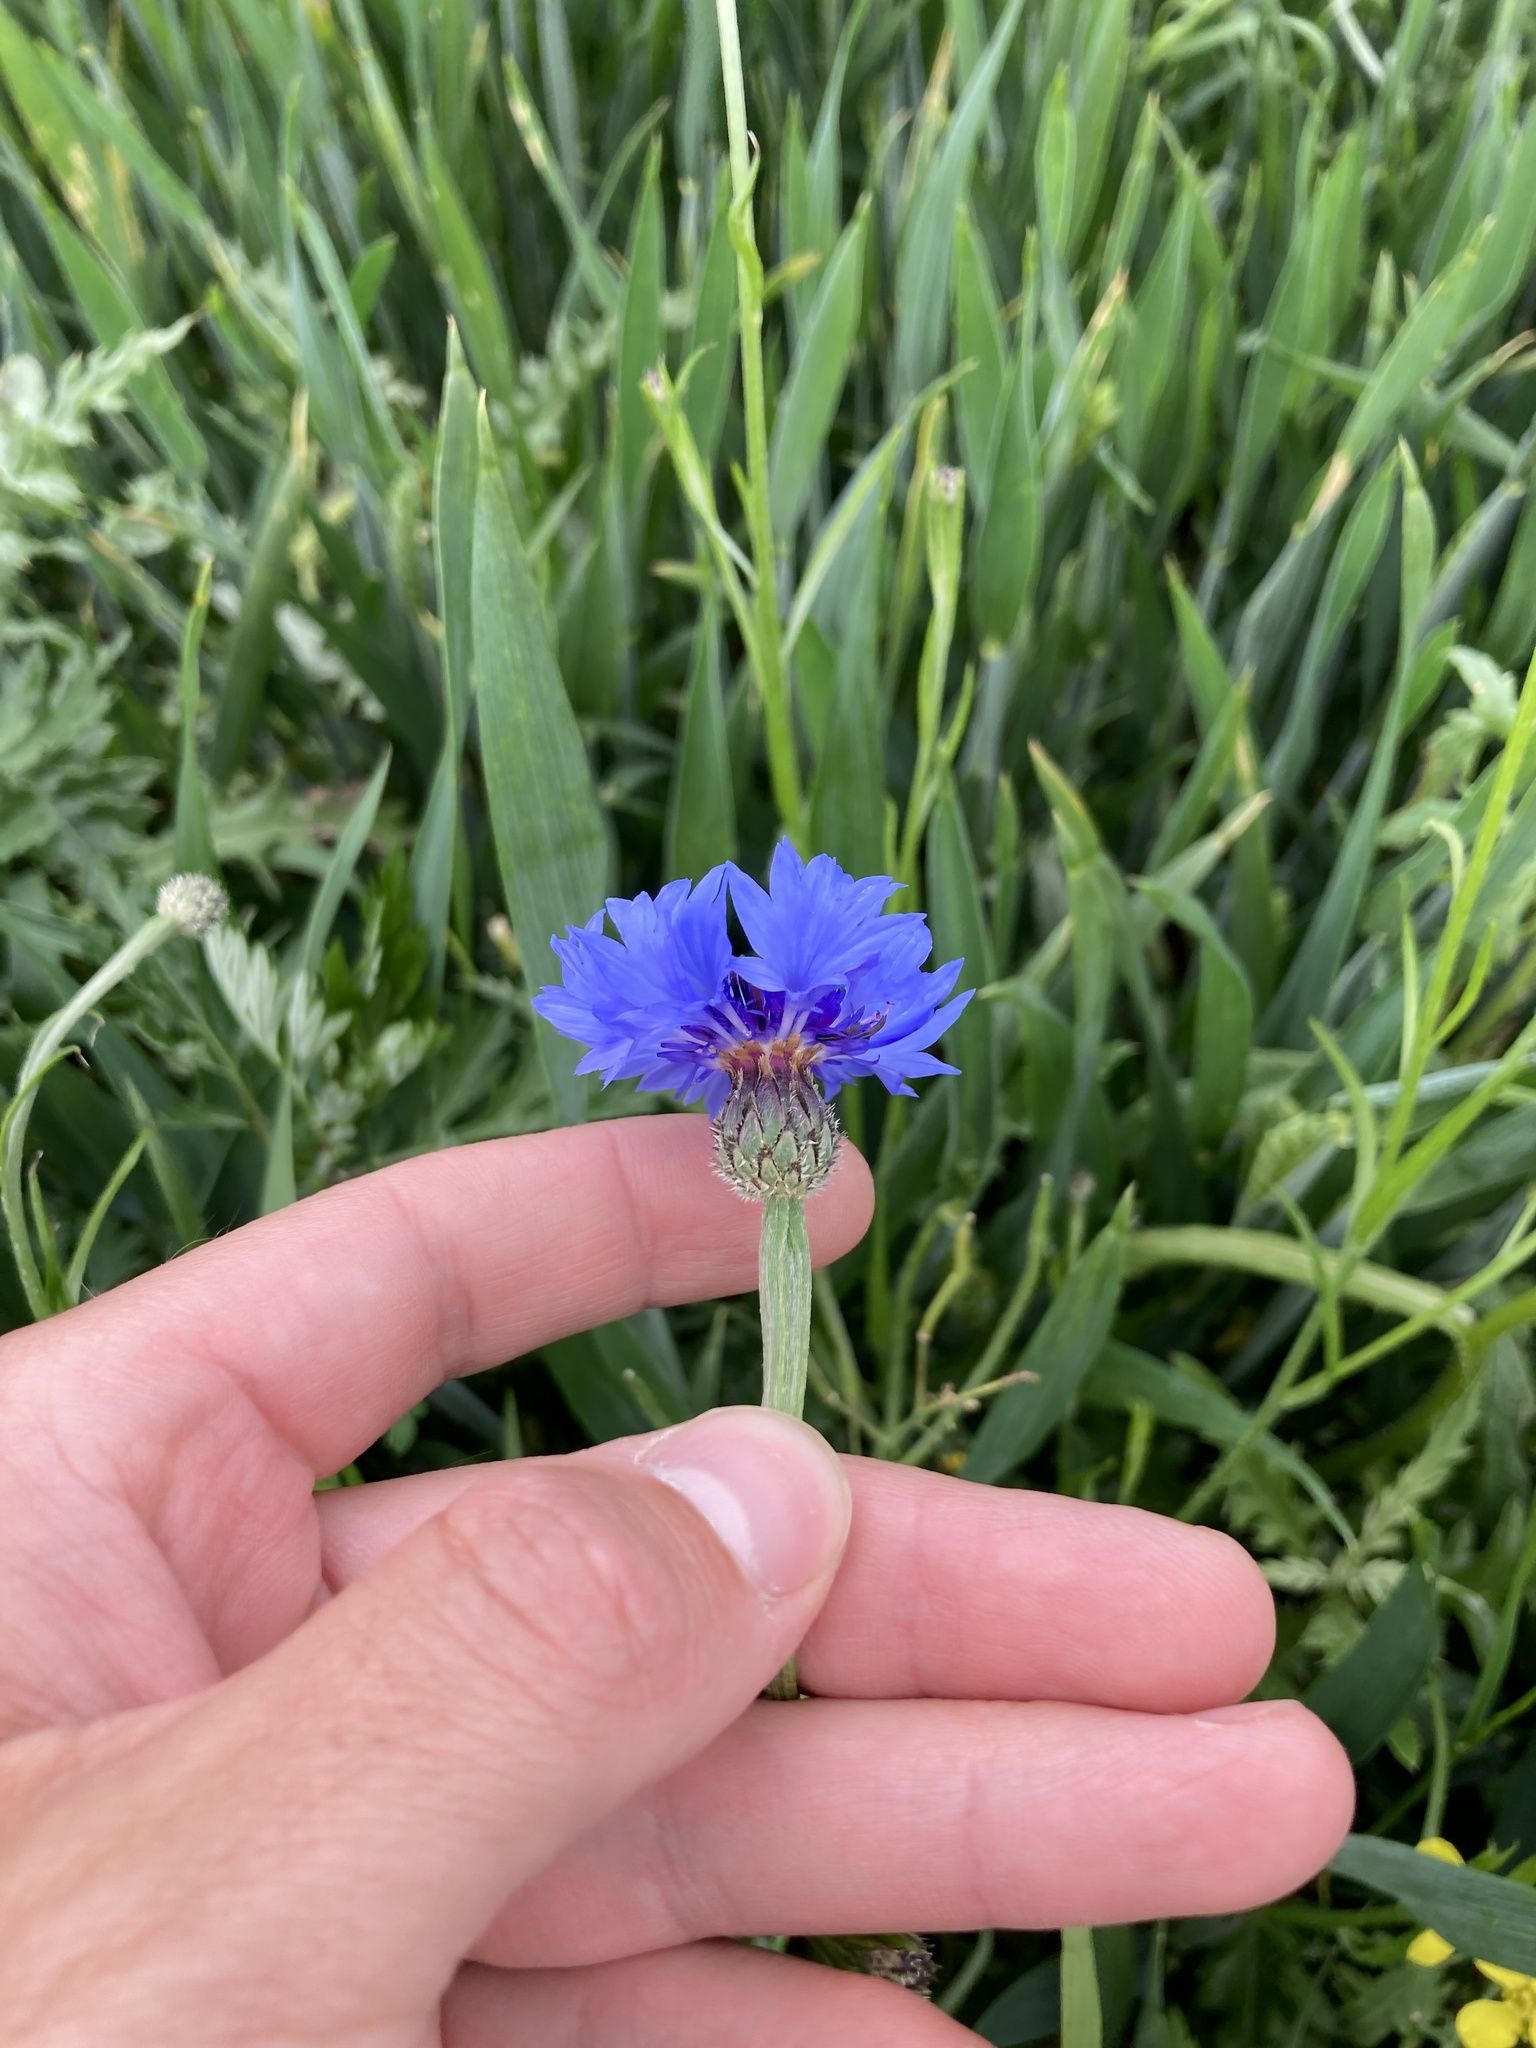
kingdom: Plantae
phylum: Tracheophyta
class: Magnoliopsida
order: Asterales
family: Asteraceae
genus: Centaurea
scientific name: Centaurea cyanus
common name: Cornflower
